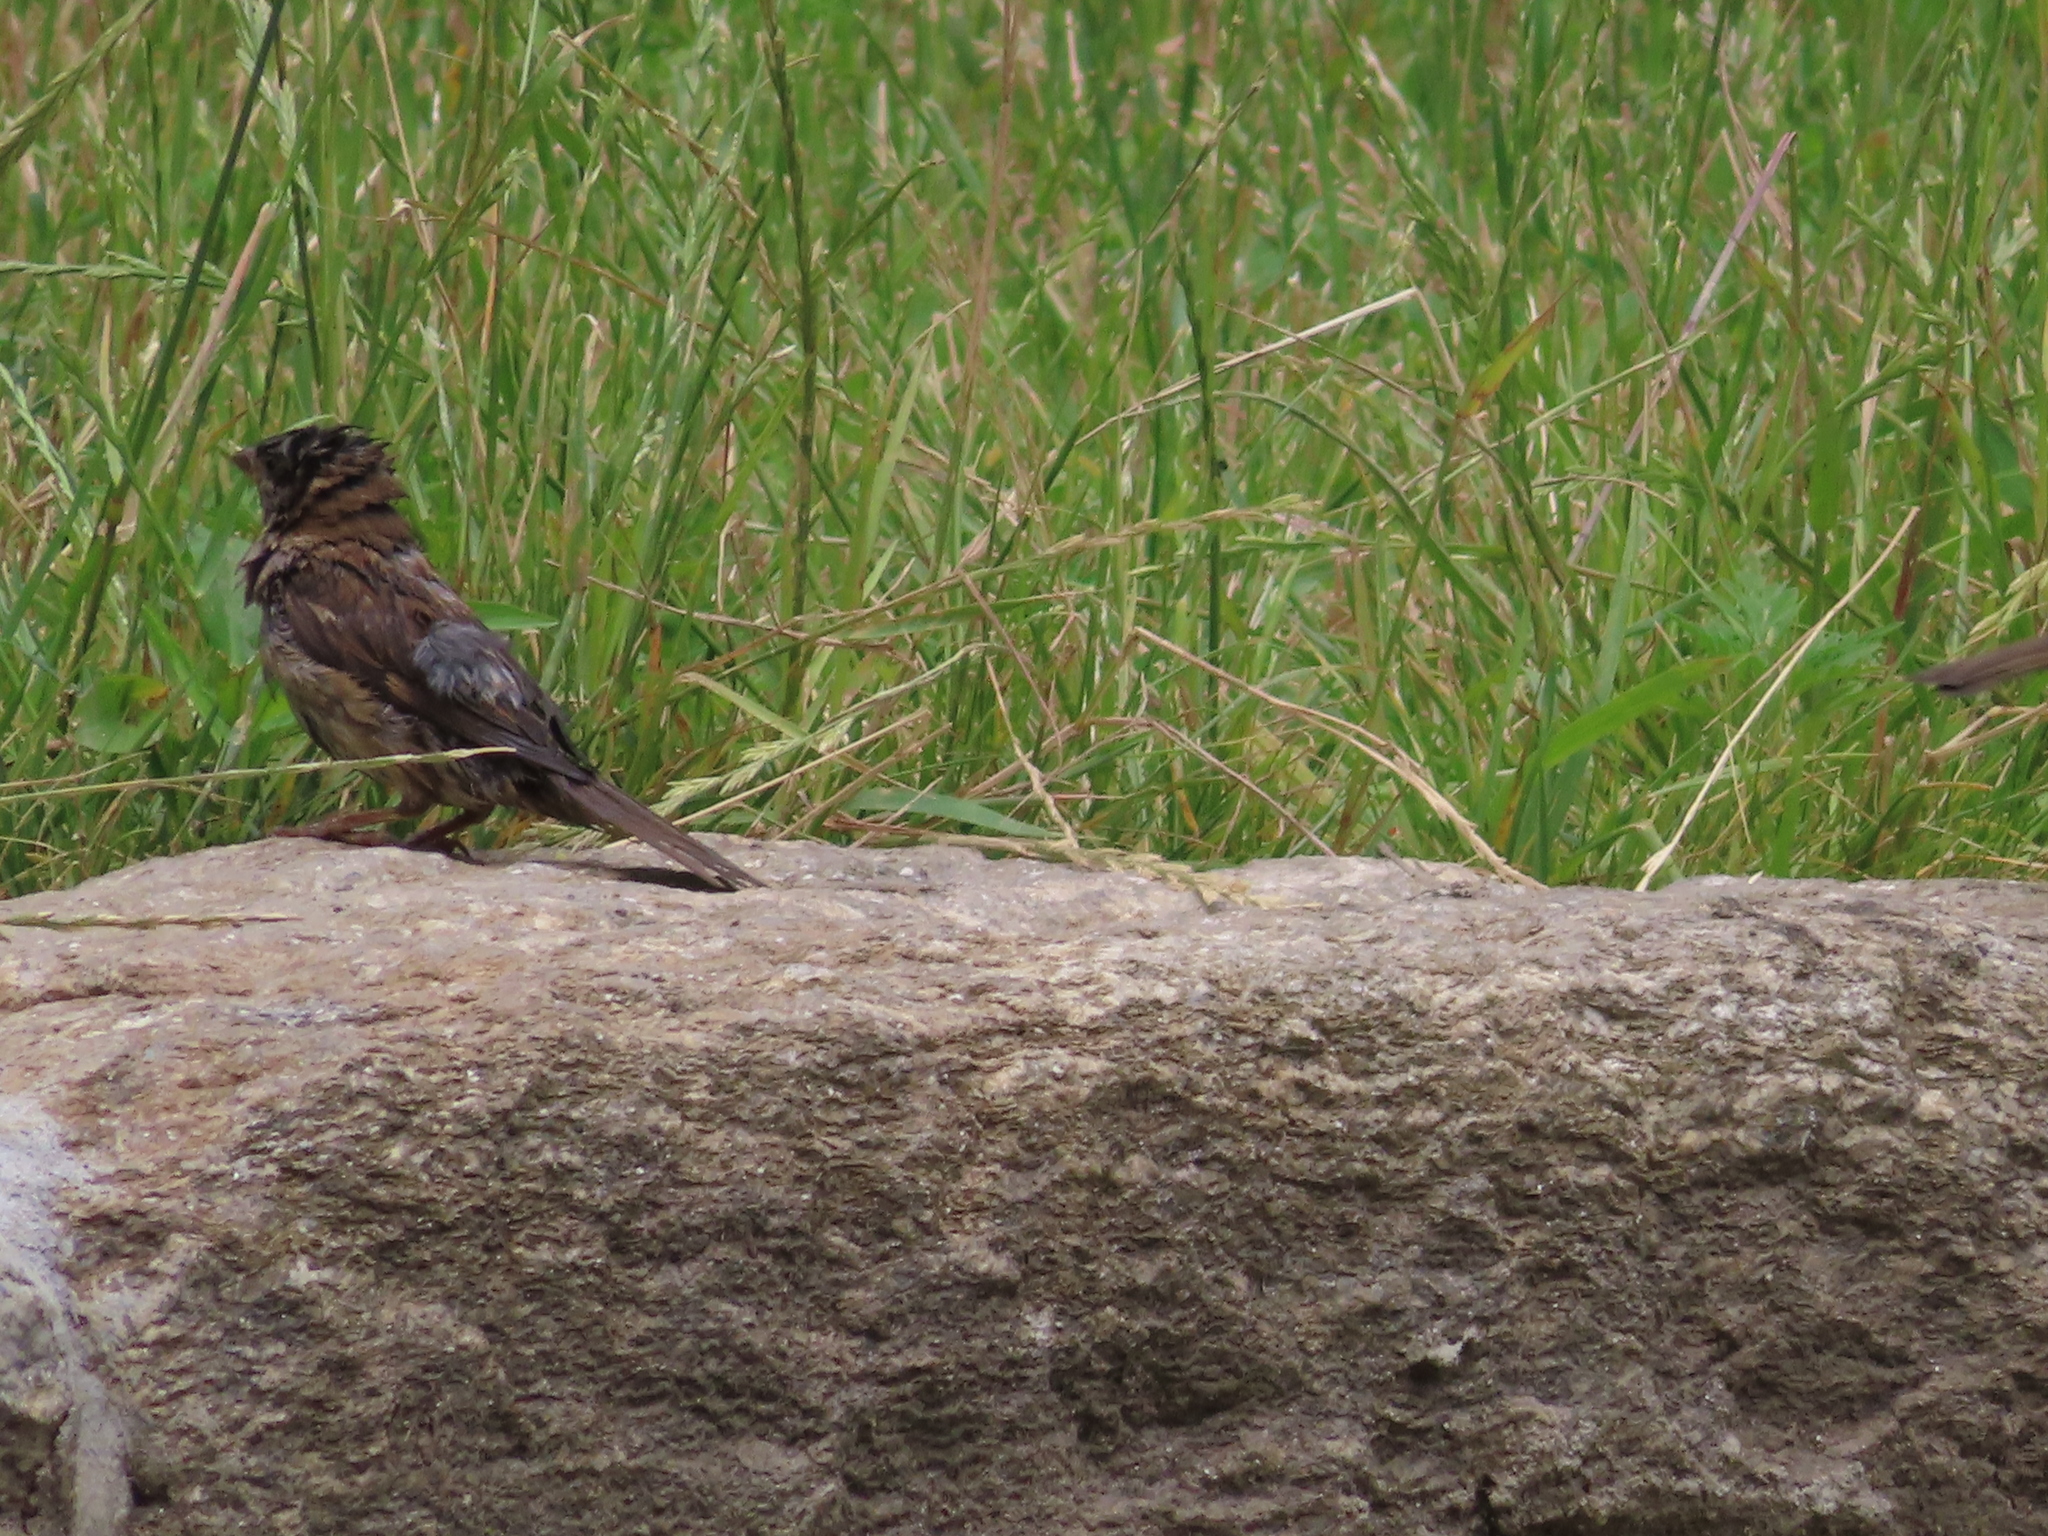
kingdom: Animalia
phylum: Chordata
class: Aves
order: Passeriformes
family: Passeridae
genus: Passer
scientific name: Passer domesticus
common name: House sparrow
